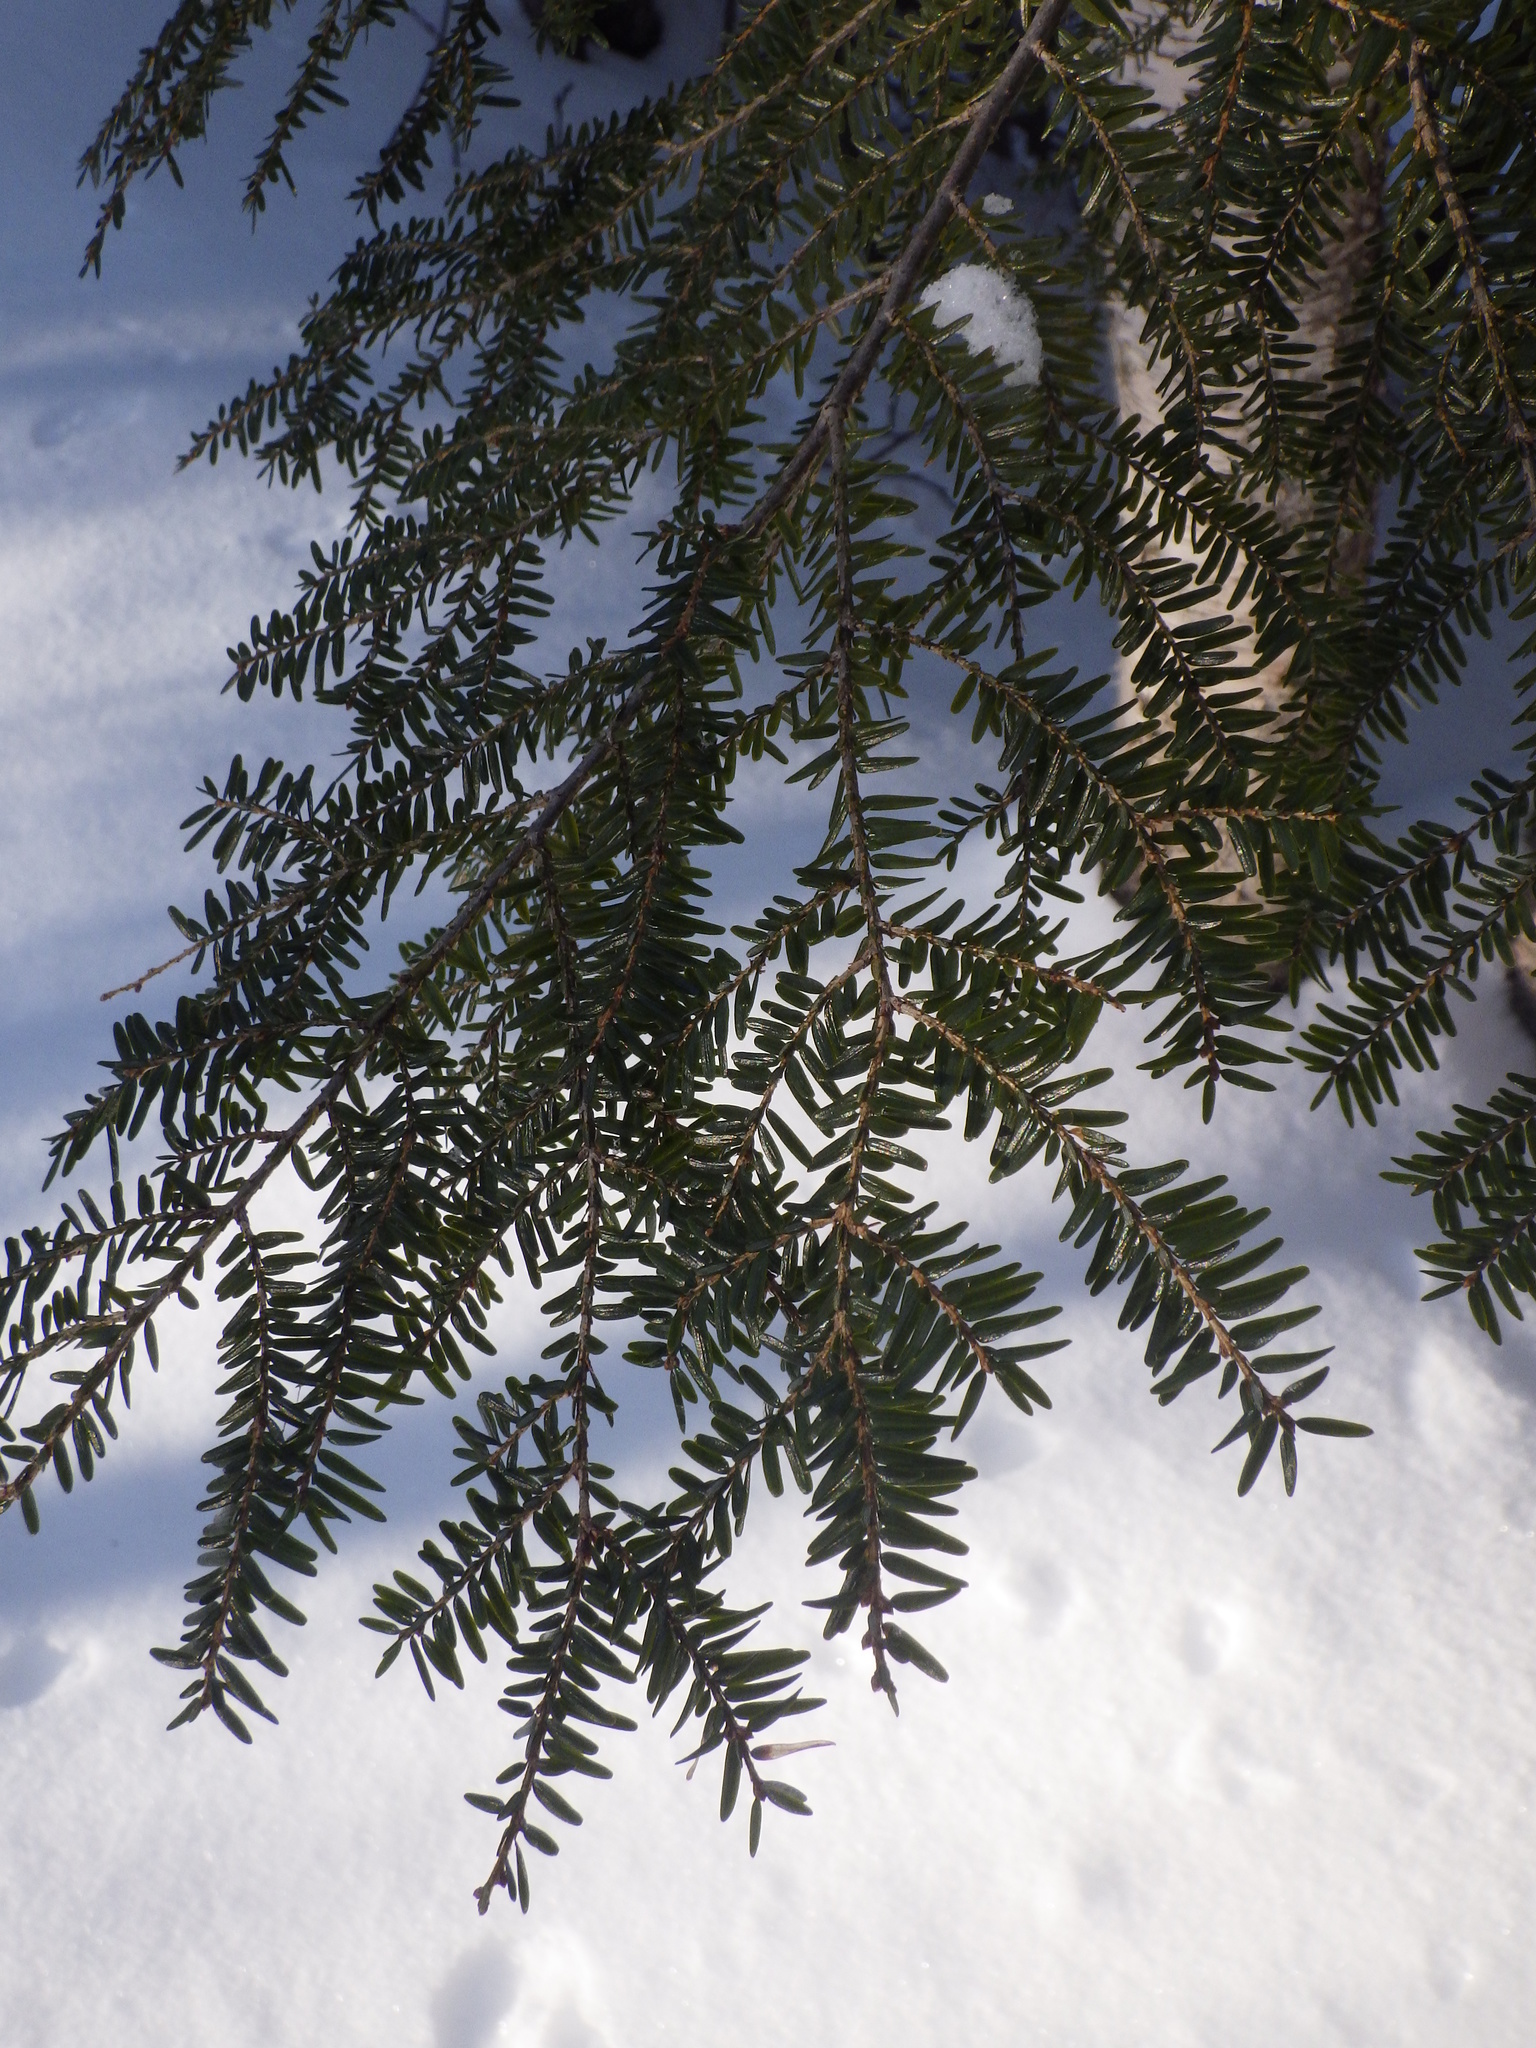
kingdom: Plantae
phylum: Tracheophyta
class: Pinopsida
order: Pinales
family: Pinaceae
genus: Tsuga
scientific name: Tsuga canadensis
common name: Eastern hemlock
